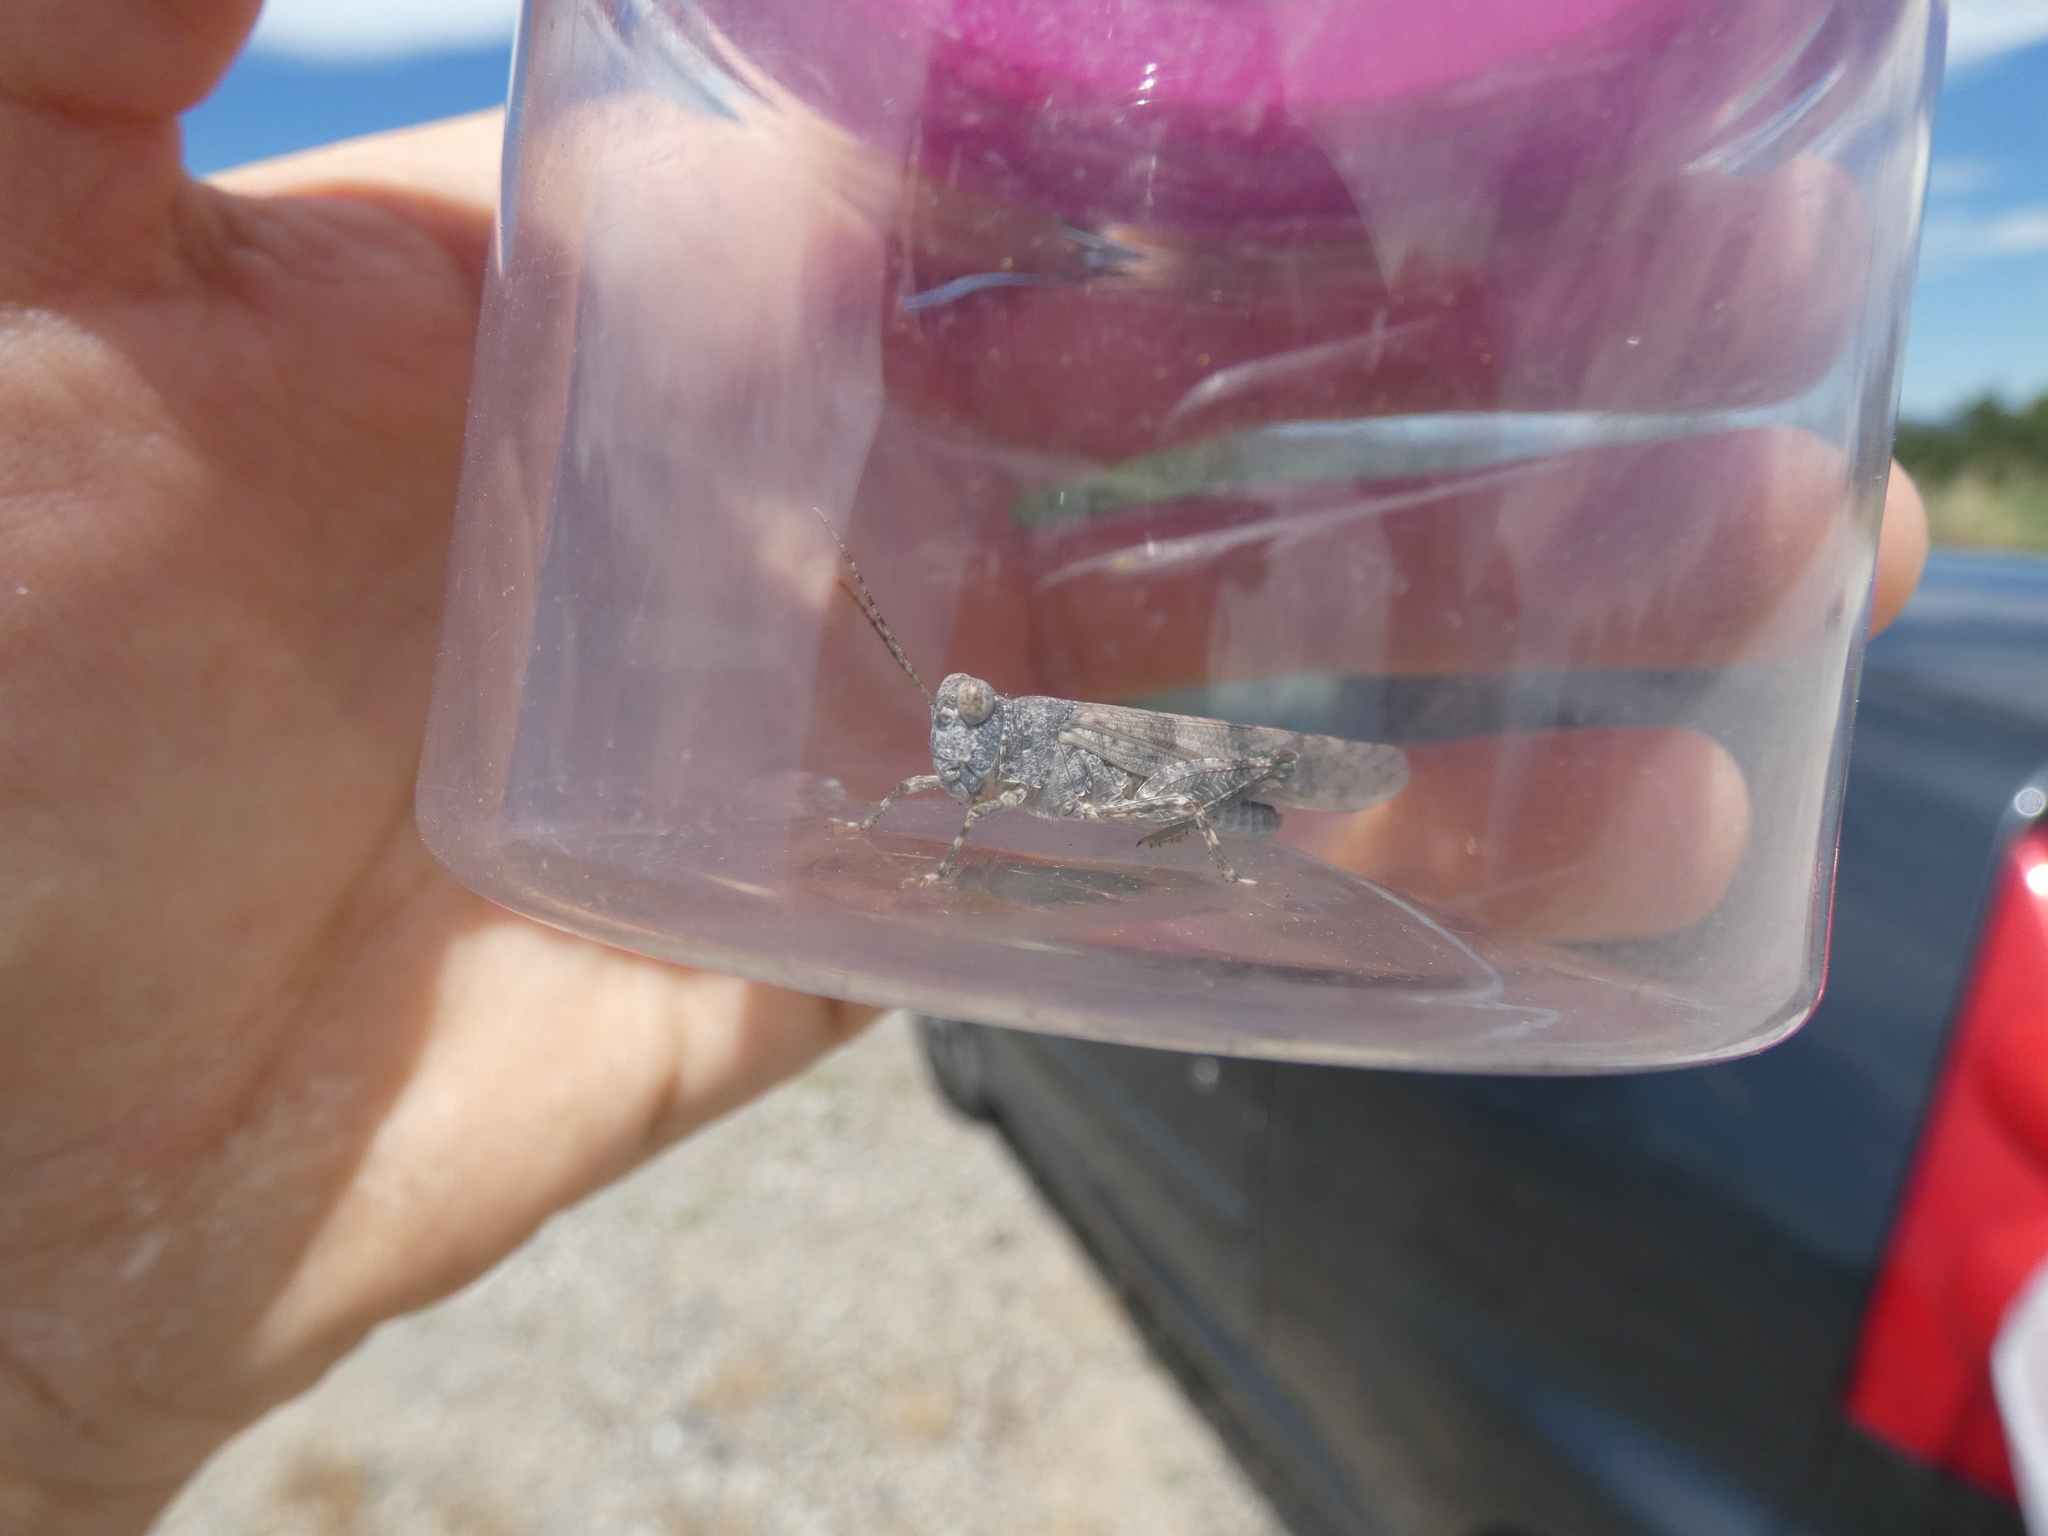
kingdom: Animalia
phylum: Arthropoda
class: Insecta
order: Orthoptera
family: Acrididae
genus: Sphingonotus
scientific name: Sphingonotus caerulans
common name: Blue-winged locust
